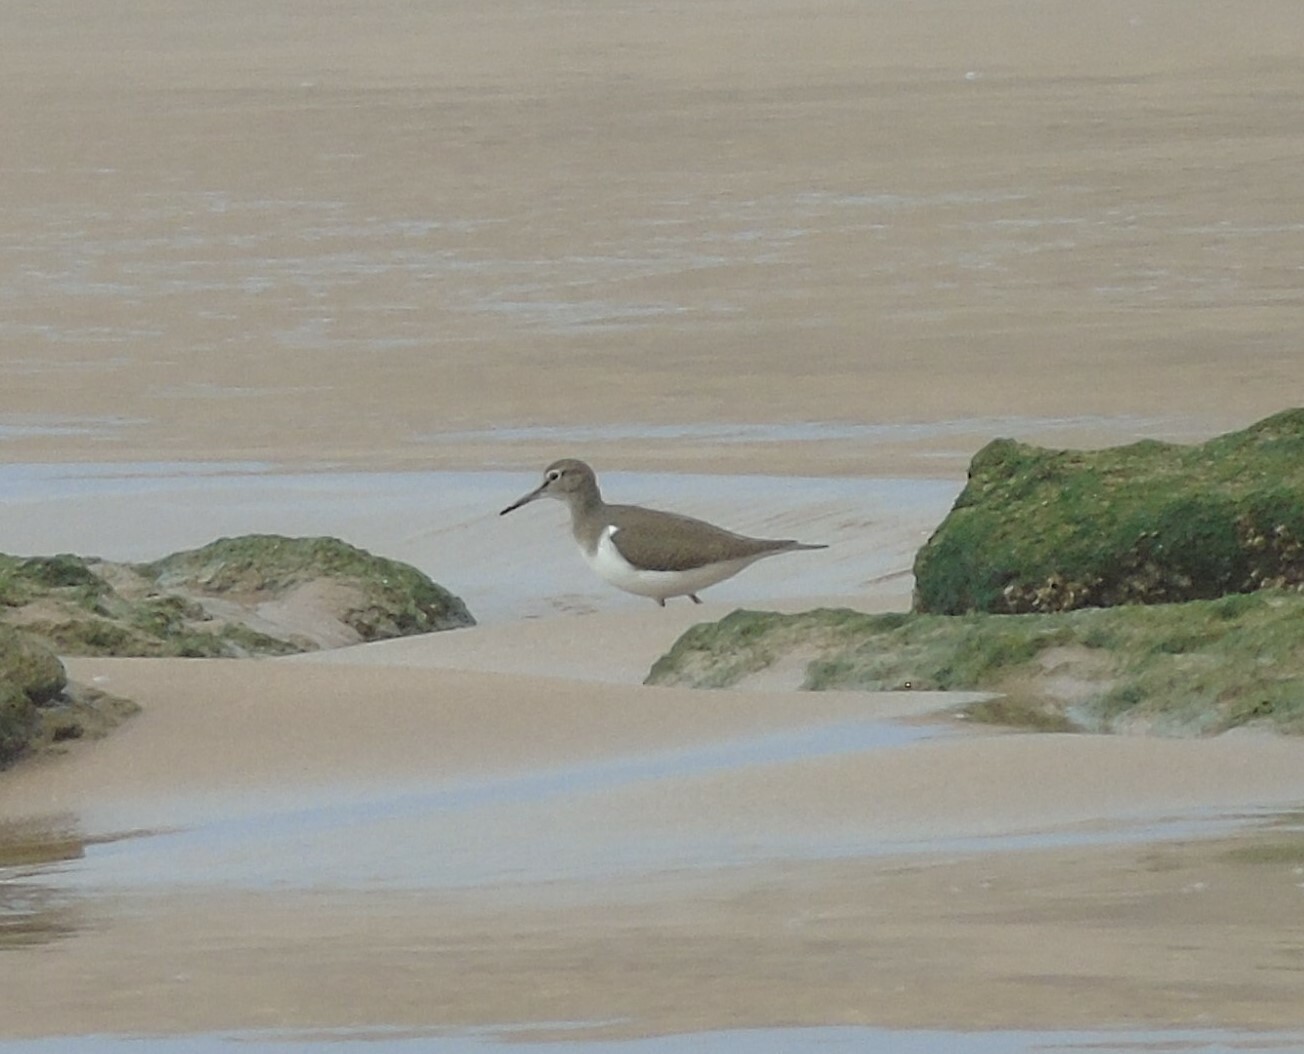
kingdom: Animalia
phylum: Chordata
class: Aves
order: Charadriiformes
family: Scolopacidae
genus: Actitis
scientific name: Actitis hypoleucos
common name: Common sandpiper
